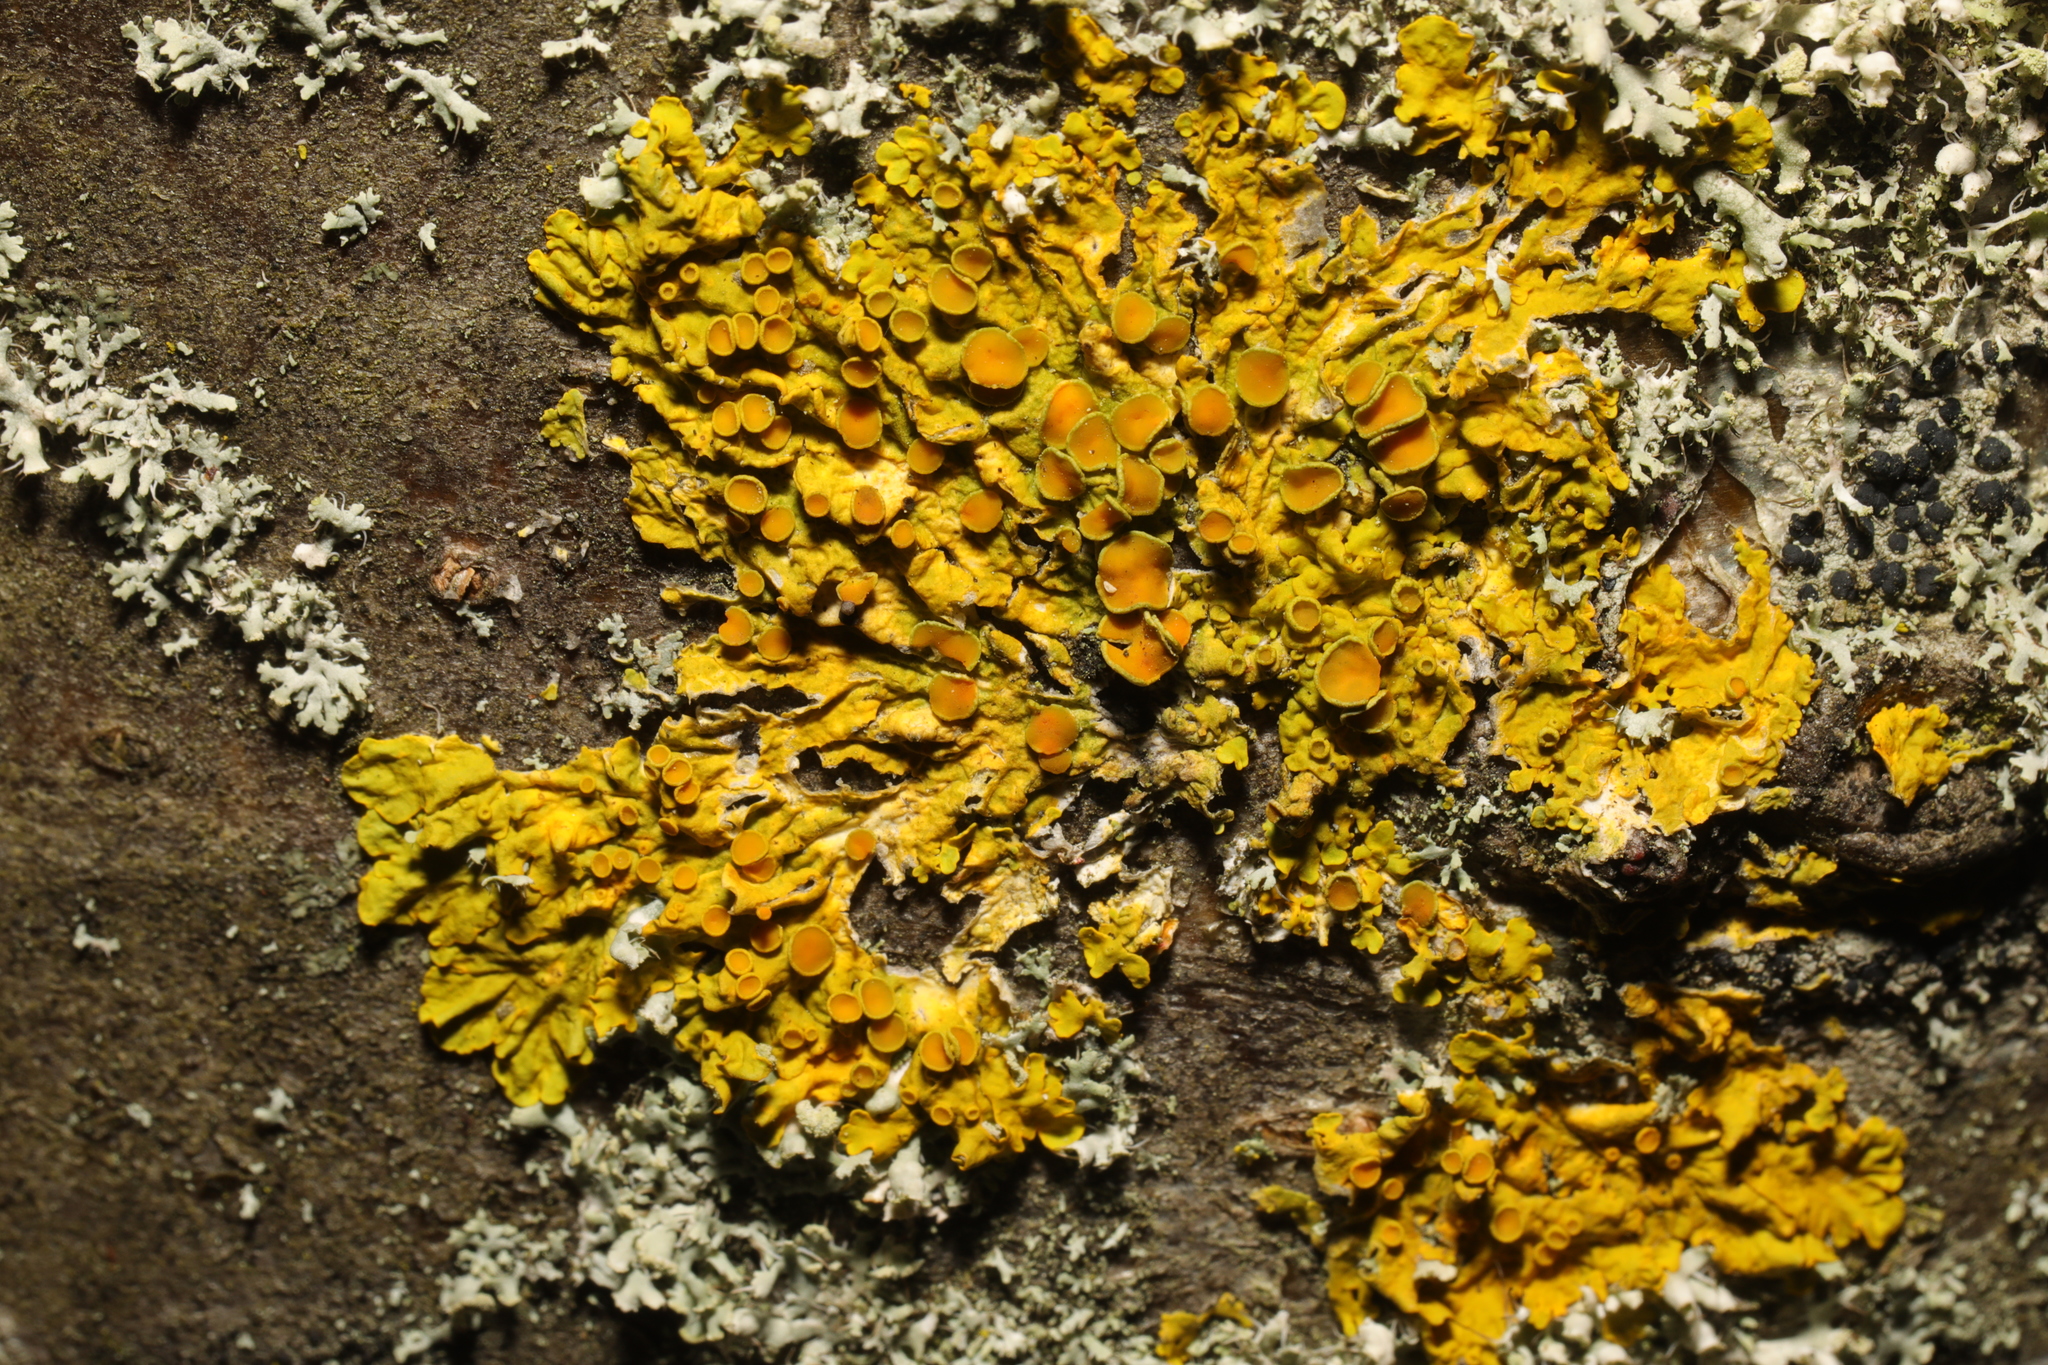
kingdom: Fungi
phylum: Ascomycota
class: Lecanoromycetes
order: Teloschistales
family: Teloschistaceae
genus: Xanthoria
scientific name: Xanthoria parietina
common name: Common orange lichen
